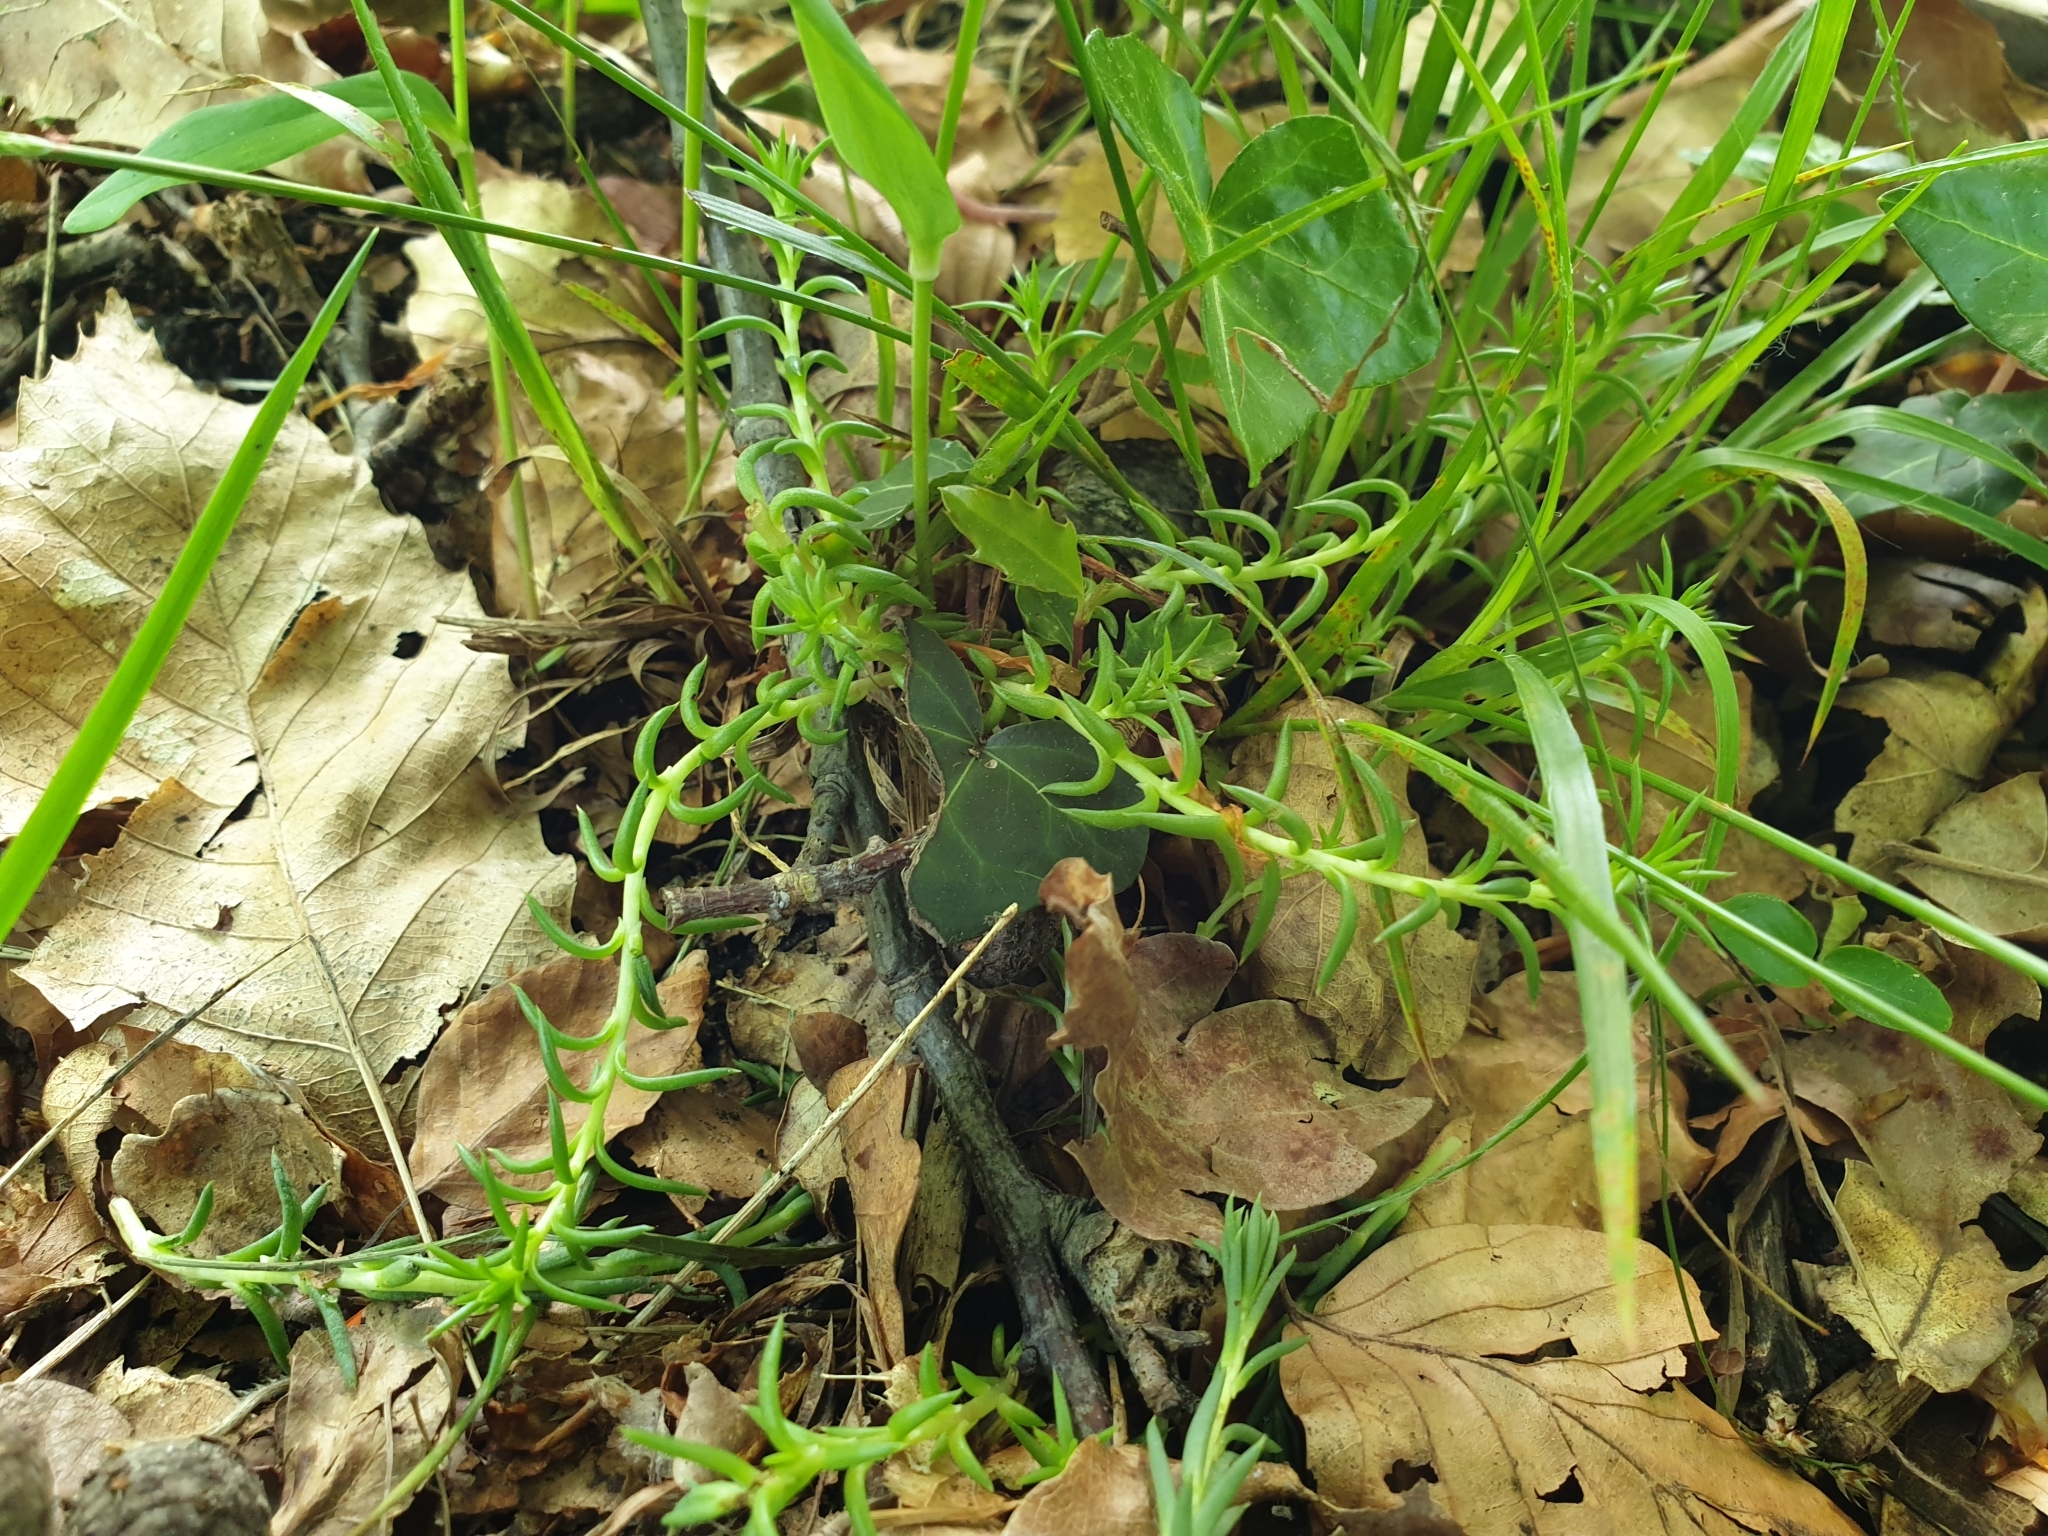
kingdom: Plantae
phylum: Tracheophyta
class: Magnoliopsida
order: Saxifragales
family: Crassulaceae
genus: Petrosedum
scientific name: Petrosedum rupestre
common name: Jenny's stonecrop
